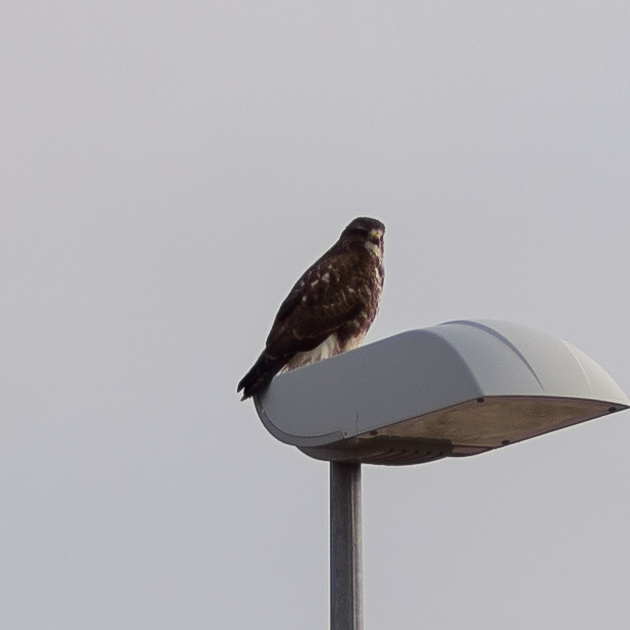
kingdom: Animalia
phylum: Chordata
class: Aves
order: Accipitriformes
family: Accipitridae
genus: Buteo
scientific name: Buteo buteo
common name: Common buzzard
